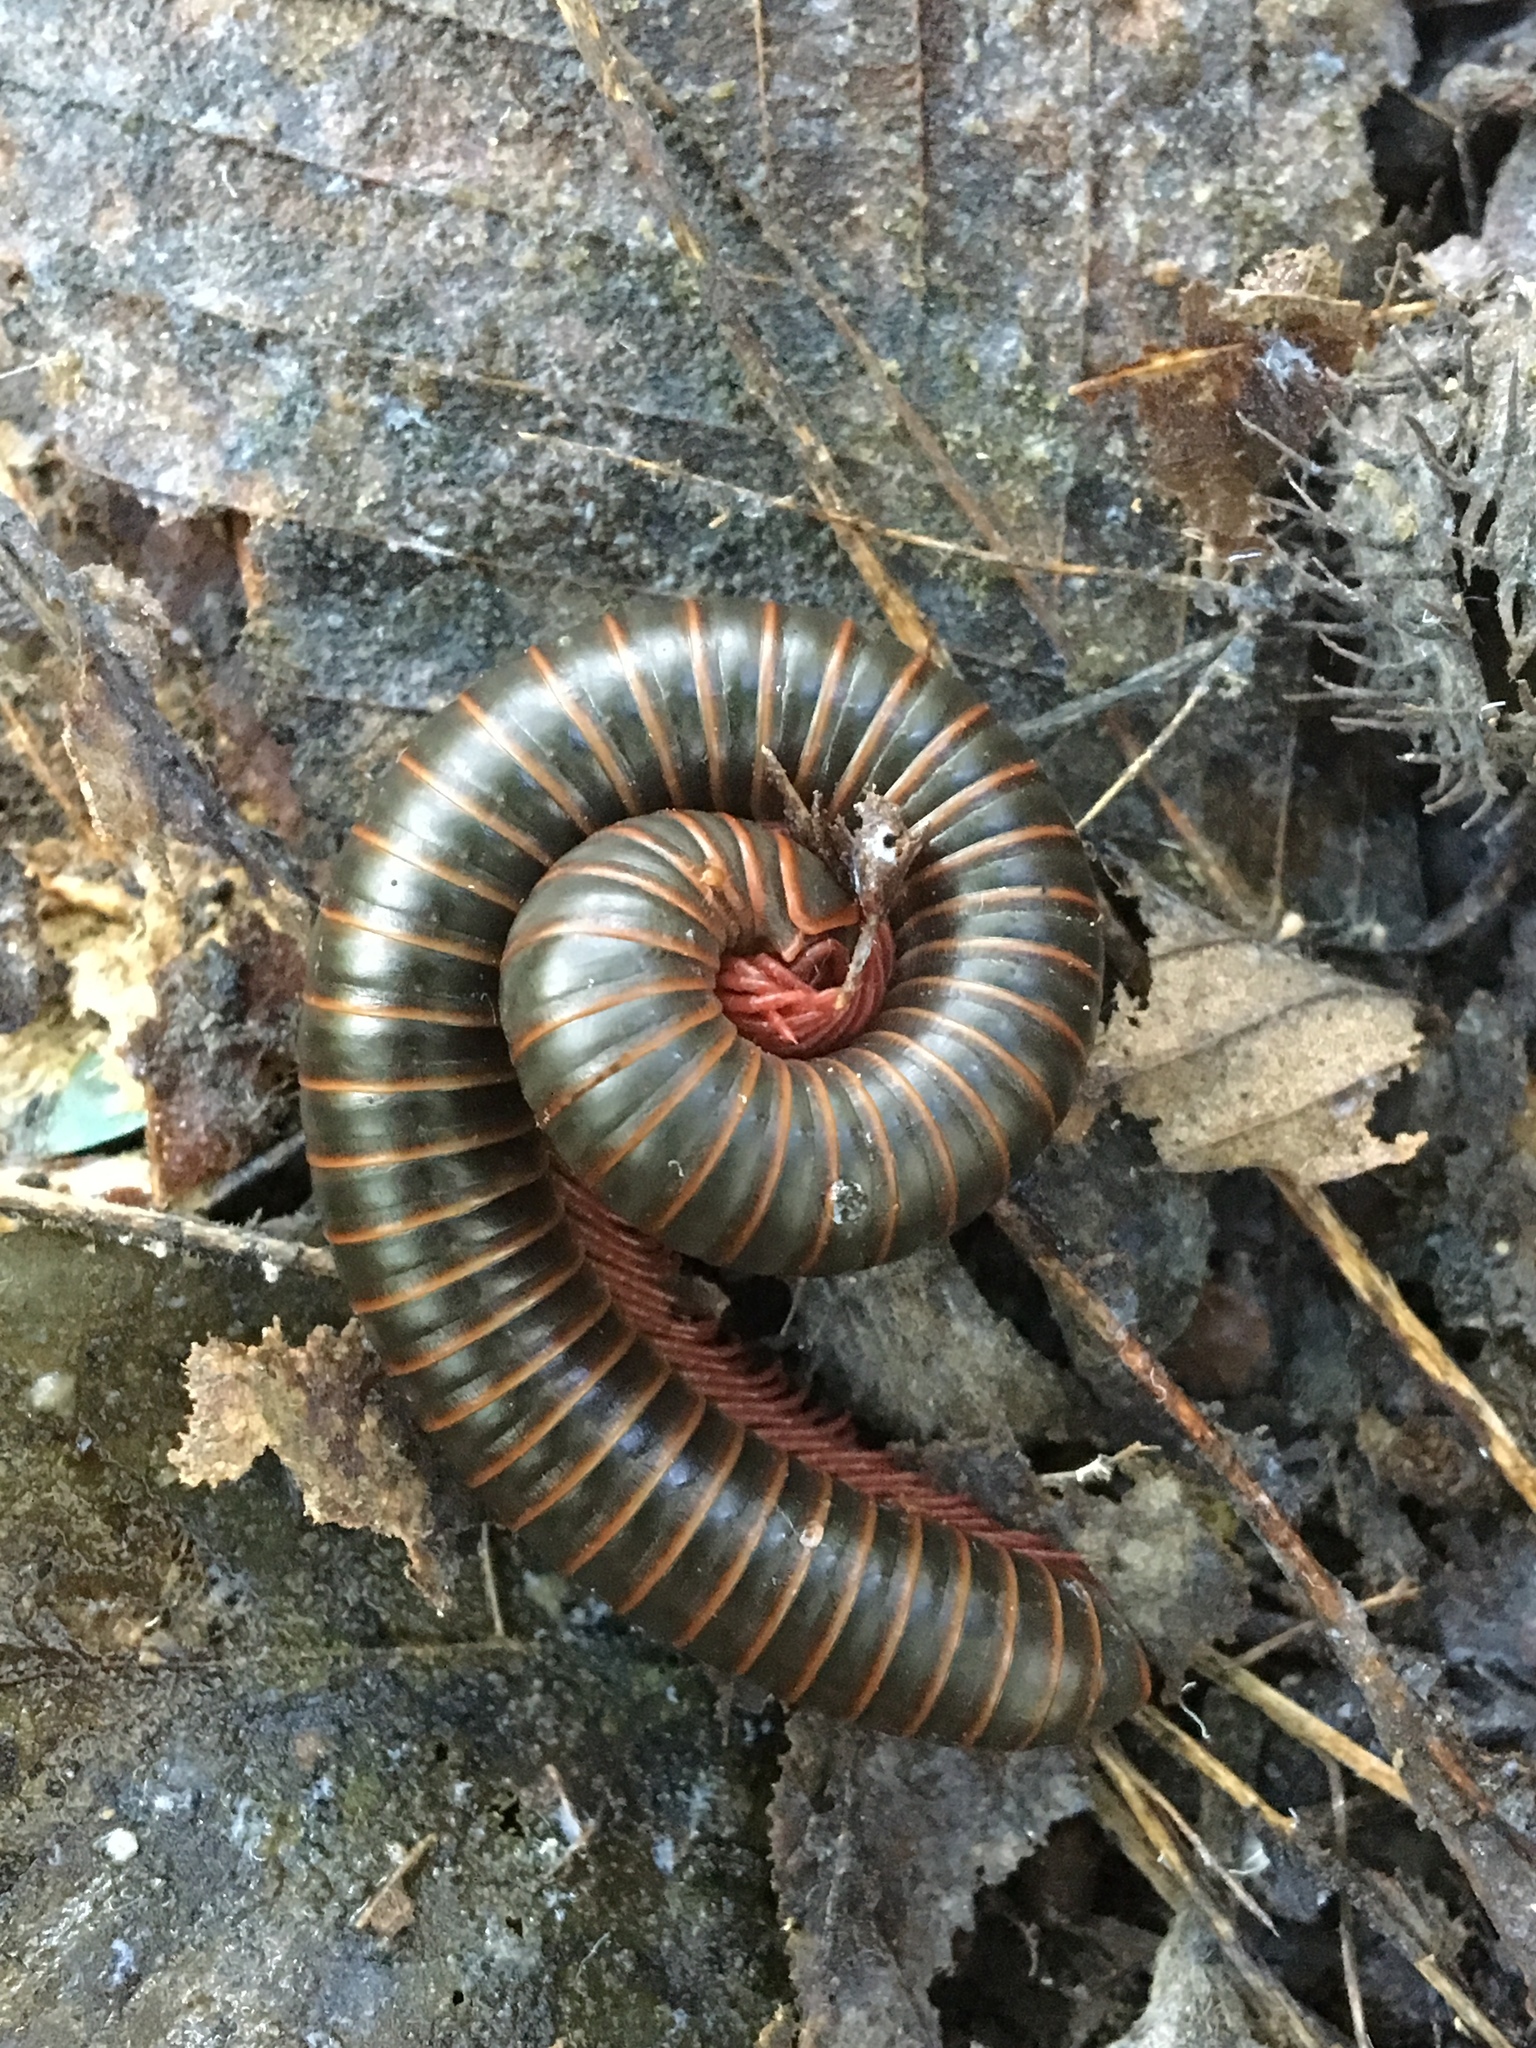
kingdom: Animalia
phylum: Arthropoda
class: Diplopoda
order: Spirobolida
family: Spirobolidae
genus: Narceus
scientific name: Narceus
